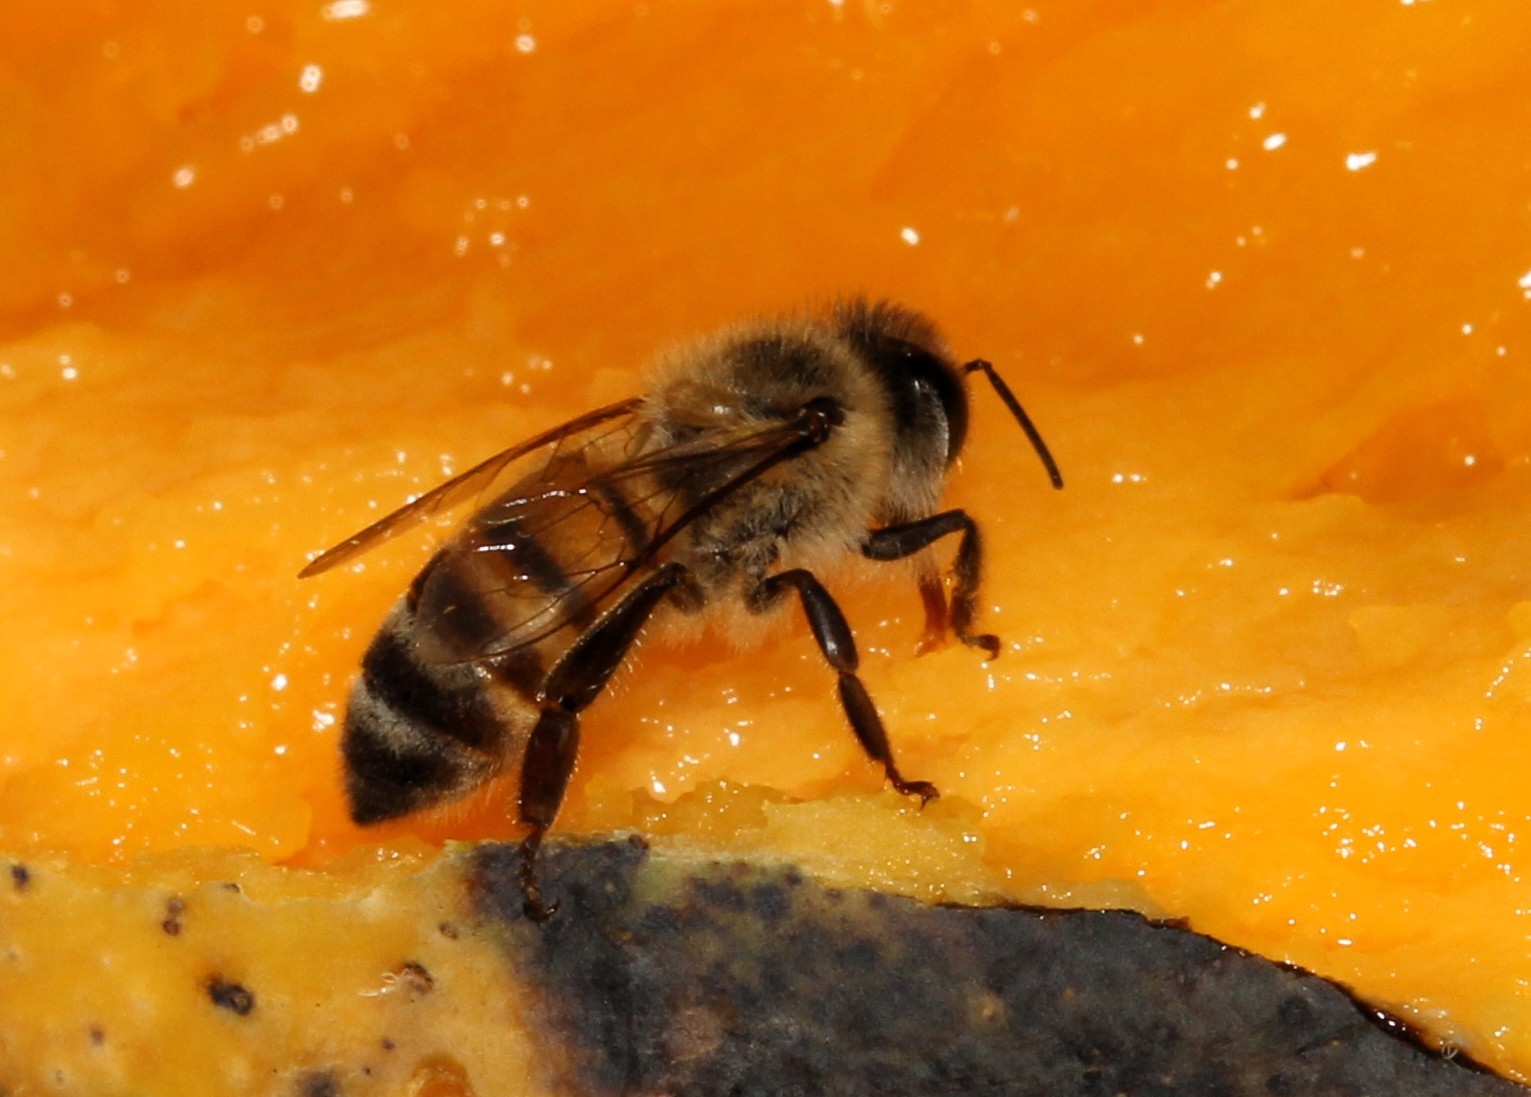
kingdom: Animalia
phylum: Arthropoda
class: Insecta
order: Hymenoptera
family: Apidae
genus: Apis
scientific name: Apis mellifera
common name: Honey bee
